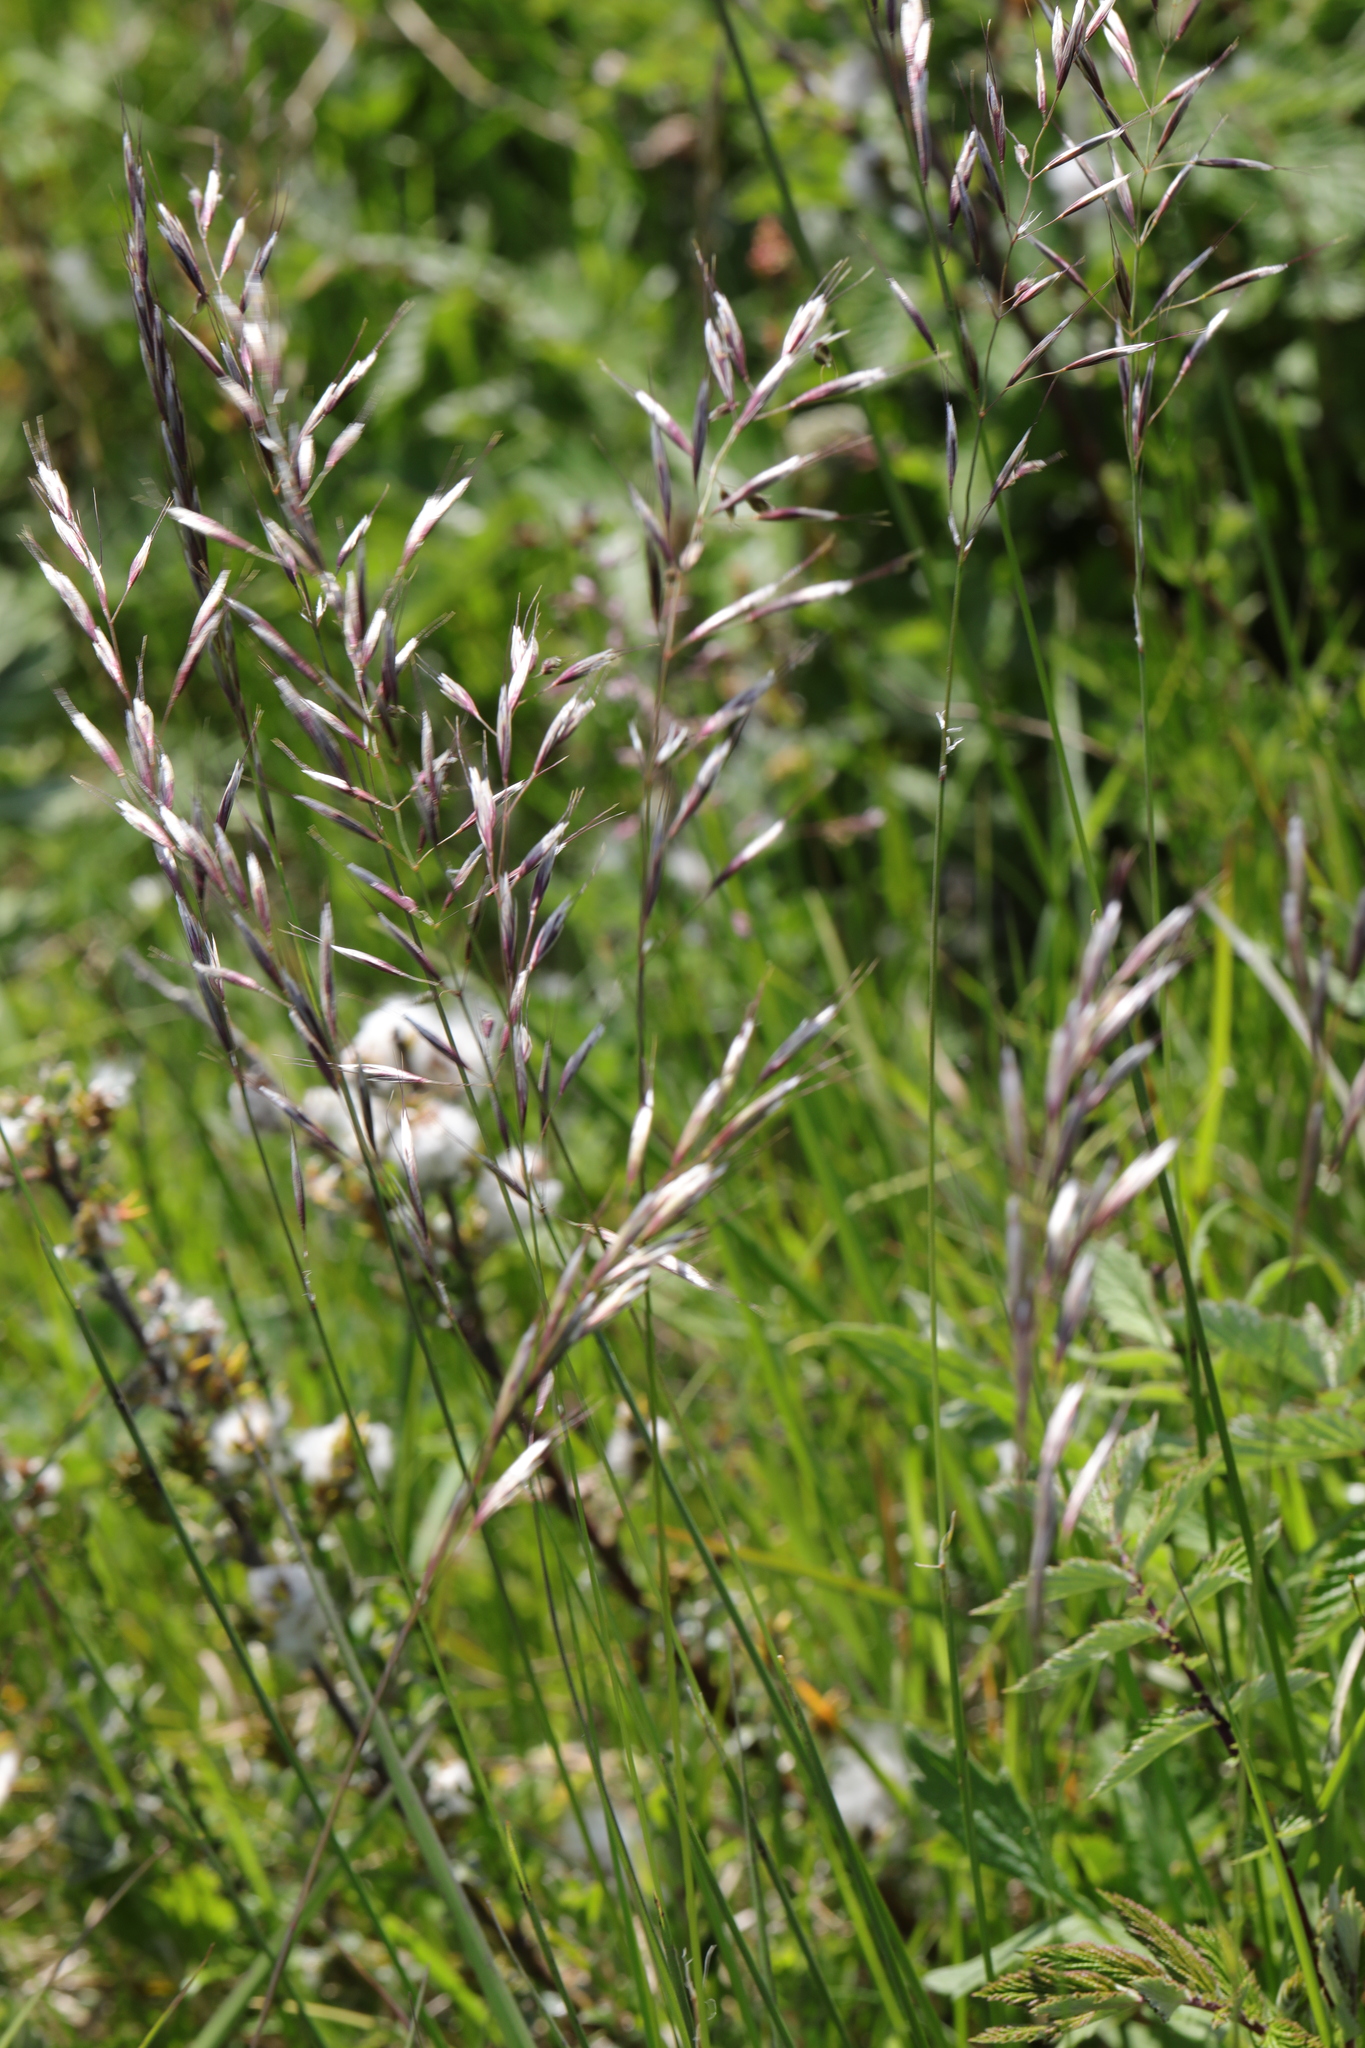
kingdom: Plantae
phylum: Tracheophyta
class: Liliopsida
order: Poales
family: Poaceae
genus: Avenula
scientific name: Avenula pubescens
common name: Downy alpine oatgrass
